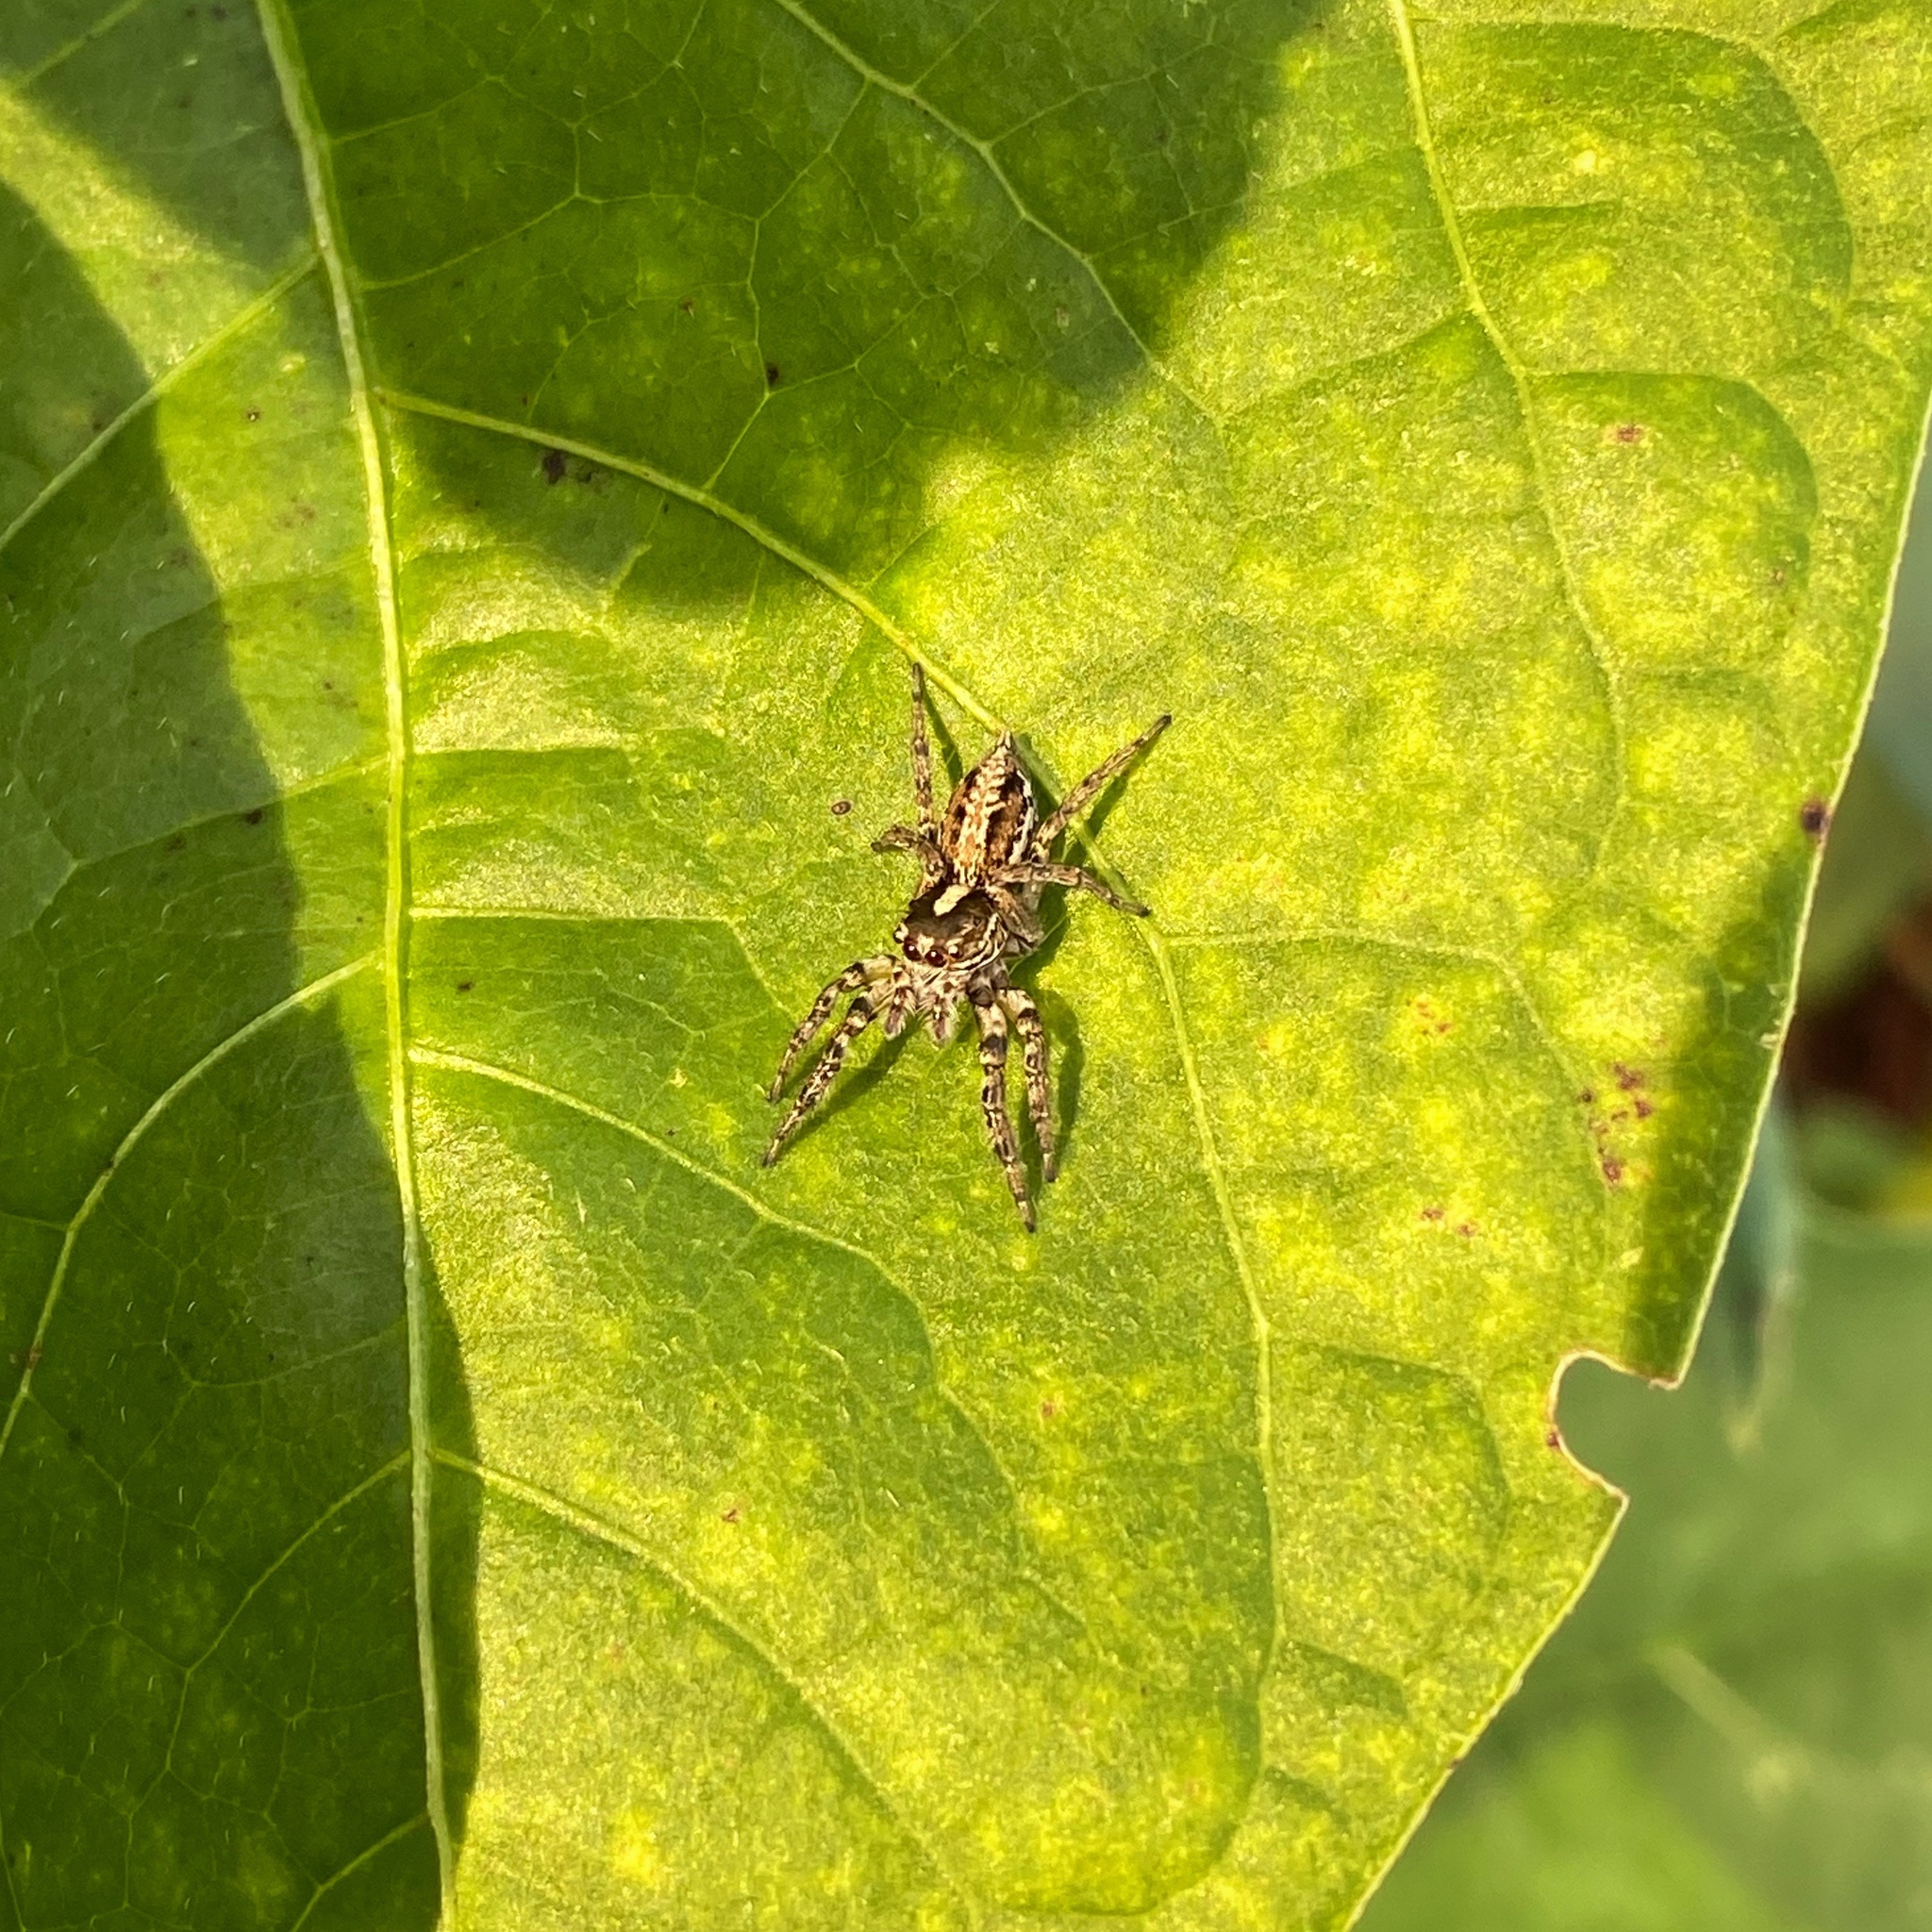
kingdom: Animalia
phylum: Arthropoda
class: Arachnida
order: Araneae
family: Salticidae
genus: Leptofreya
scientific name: Leptofreya ambigua
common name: Jumping spider
